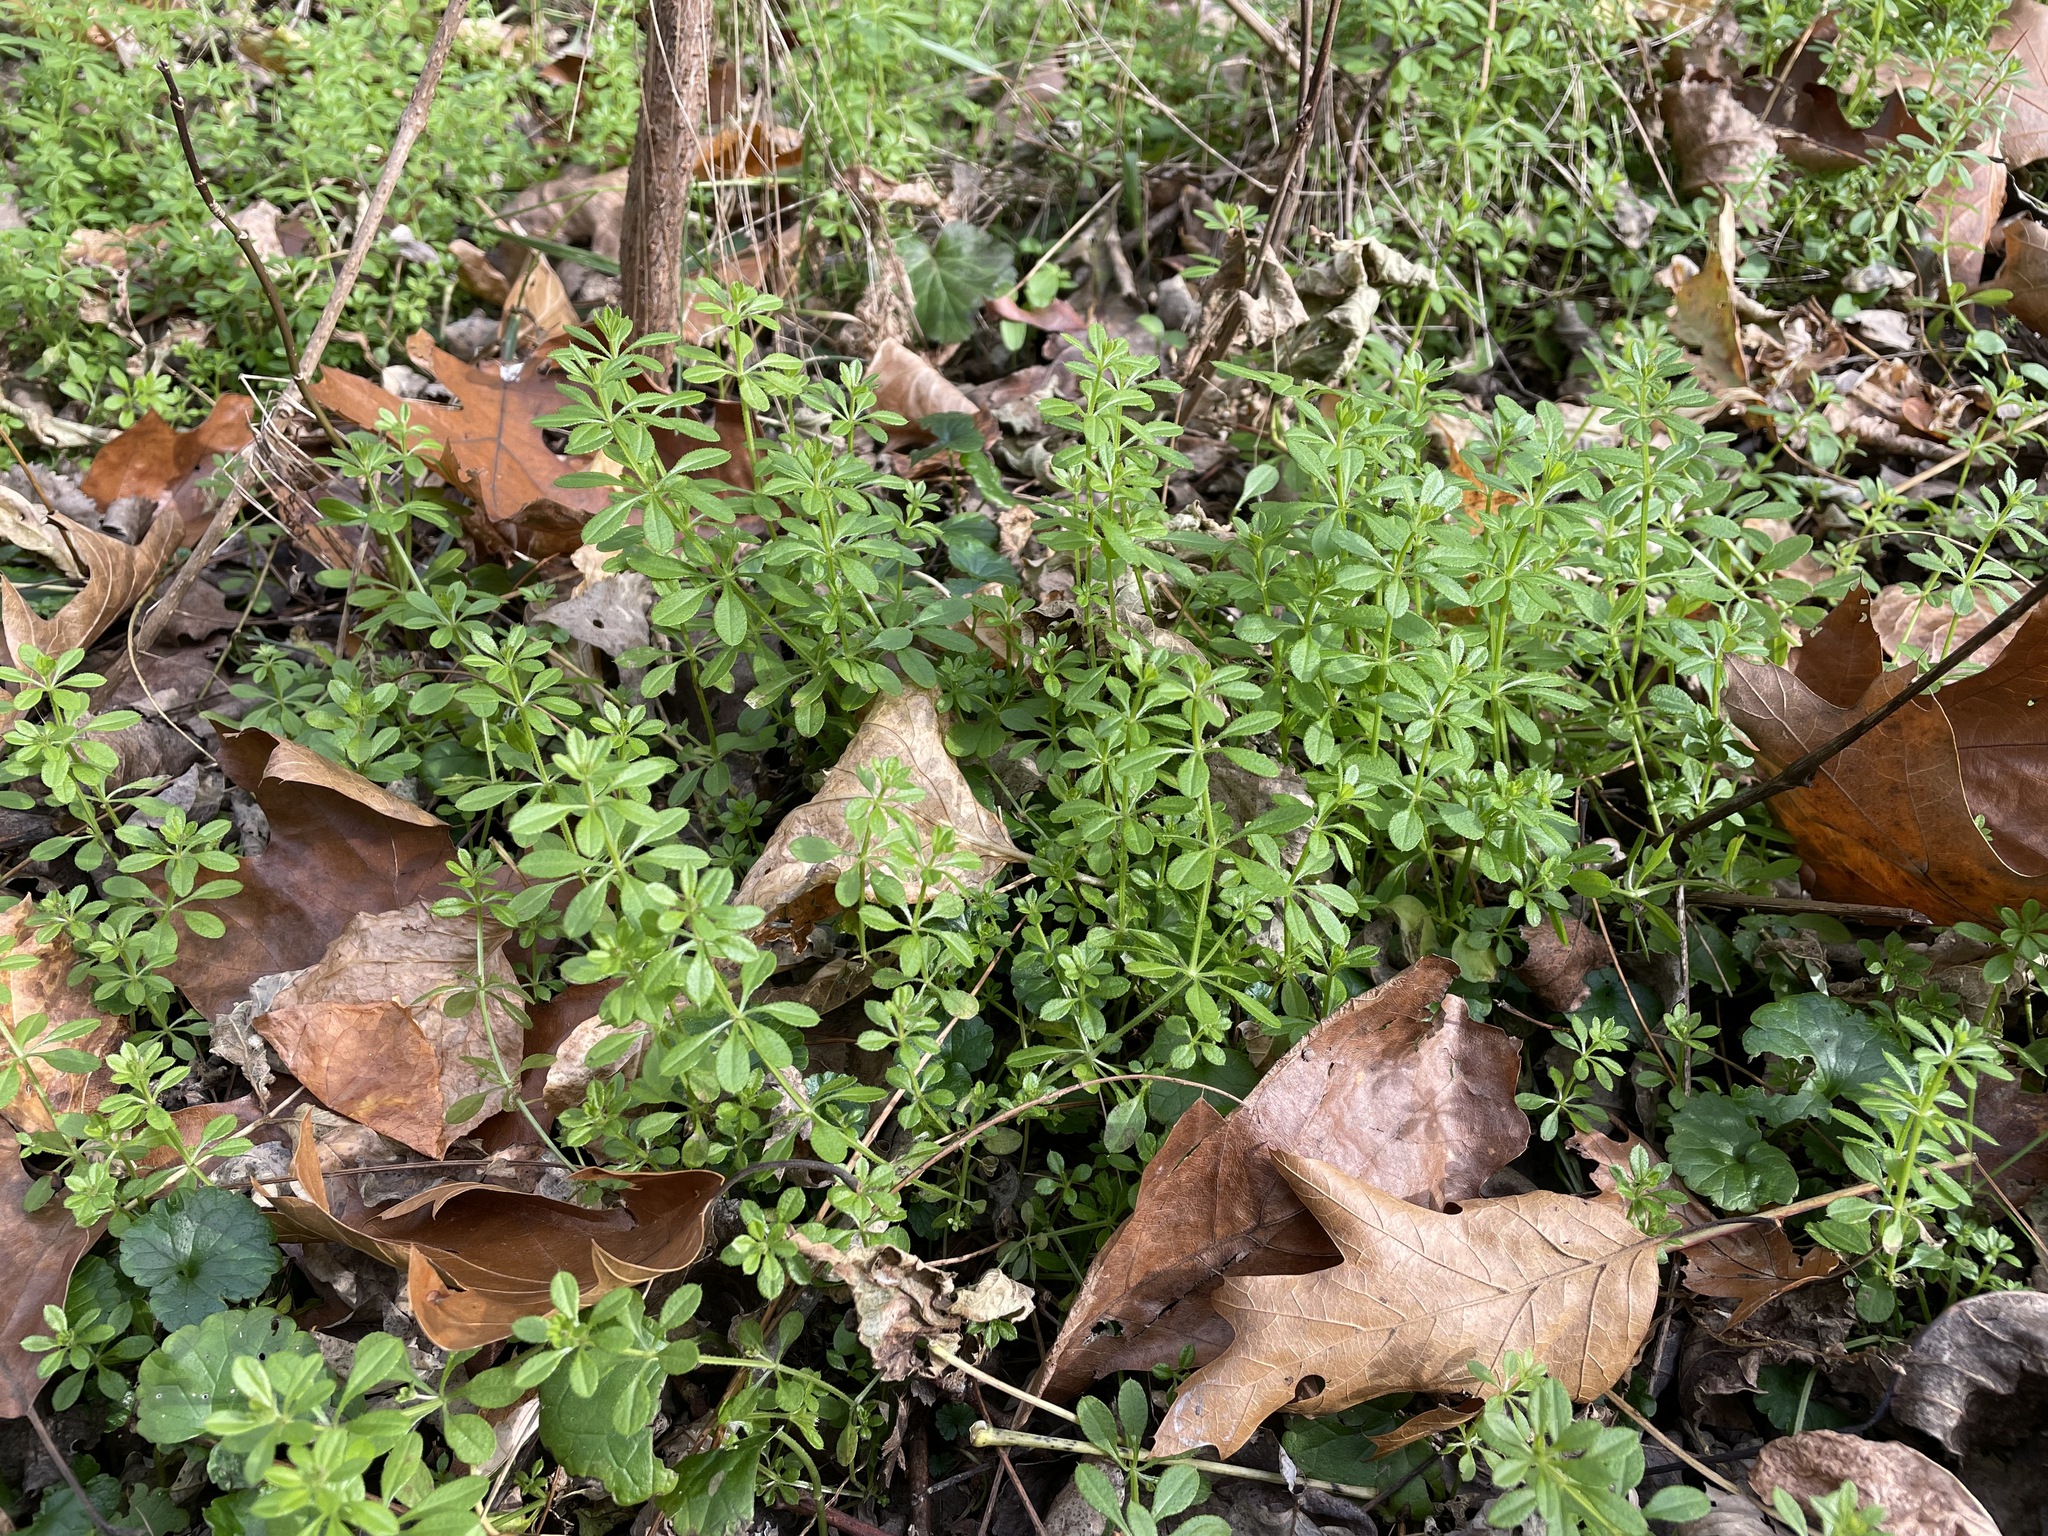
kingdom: Plantae
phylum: Tracheophyta
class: Magnoliopsida
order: Gentianales
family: Rubiaceae
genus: Galium
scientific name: Galium aparine
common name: Cleavers
